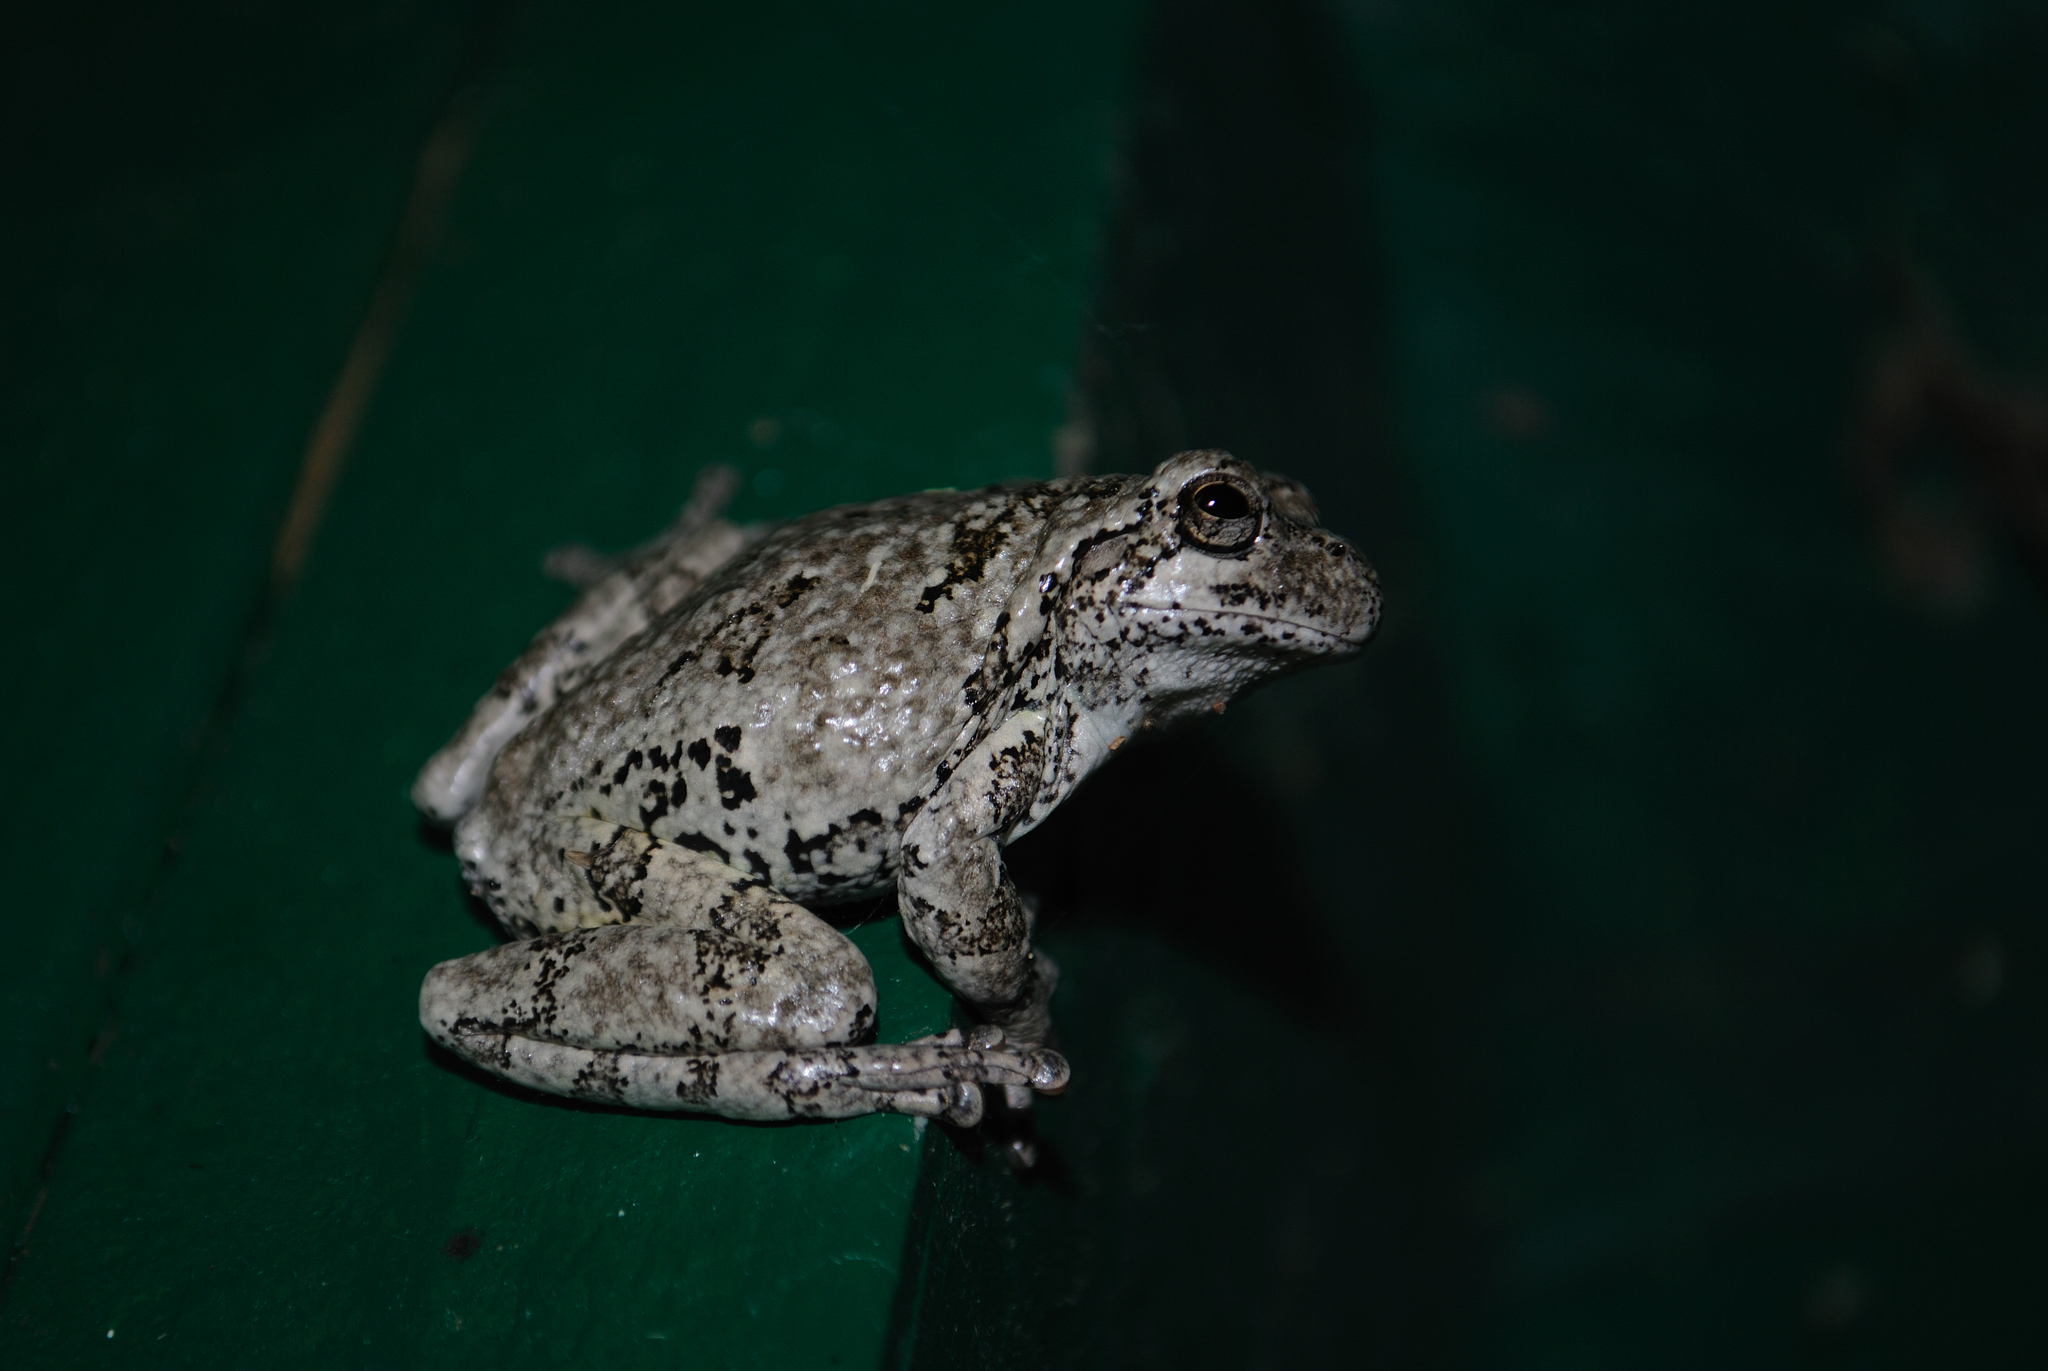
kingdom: Animalia
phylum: Chordata
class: Amphibia
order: Anura
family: Hylidae
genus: Dryophytes
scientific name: Dryophytes versicolor
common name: Gray treefrog
